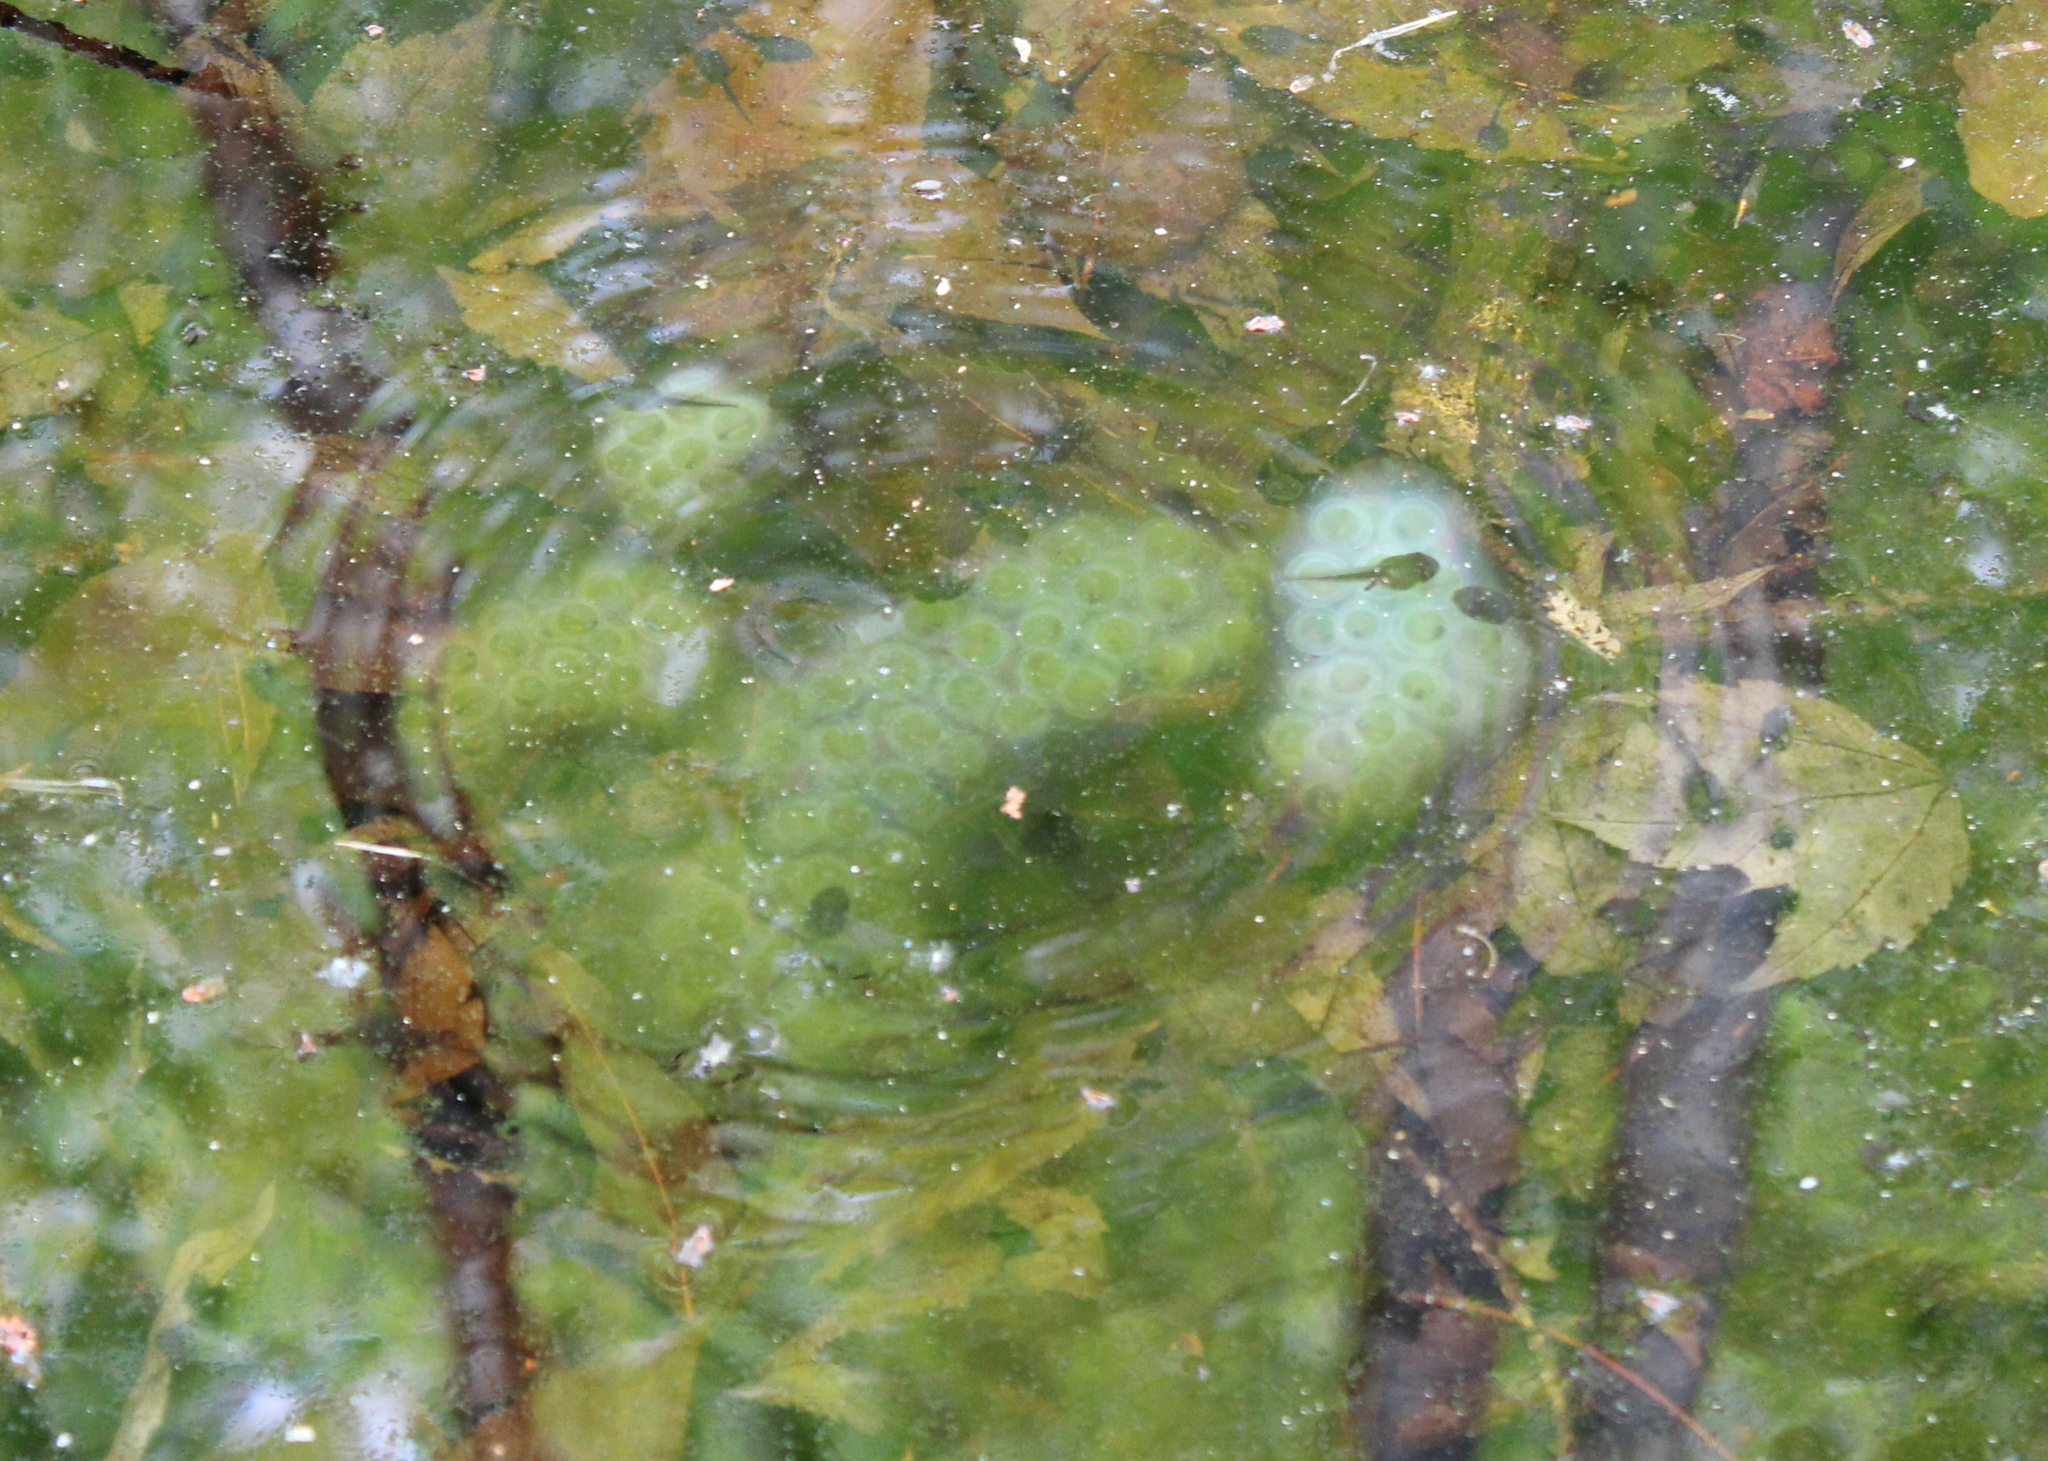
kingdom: Animalia
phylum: Chordata
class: Amphibia
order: Caudata
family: Ambystomatidae
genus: Ambystoma
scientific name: Ambystoma maculatum
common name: Spotted salamander
